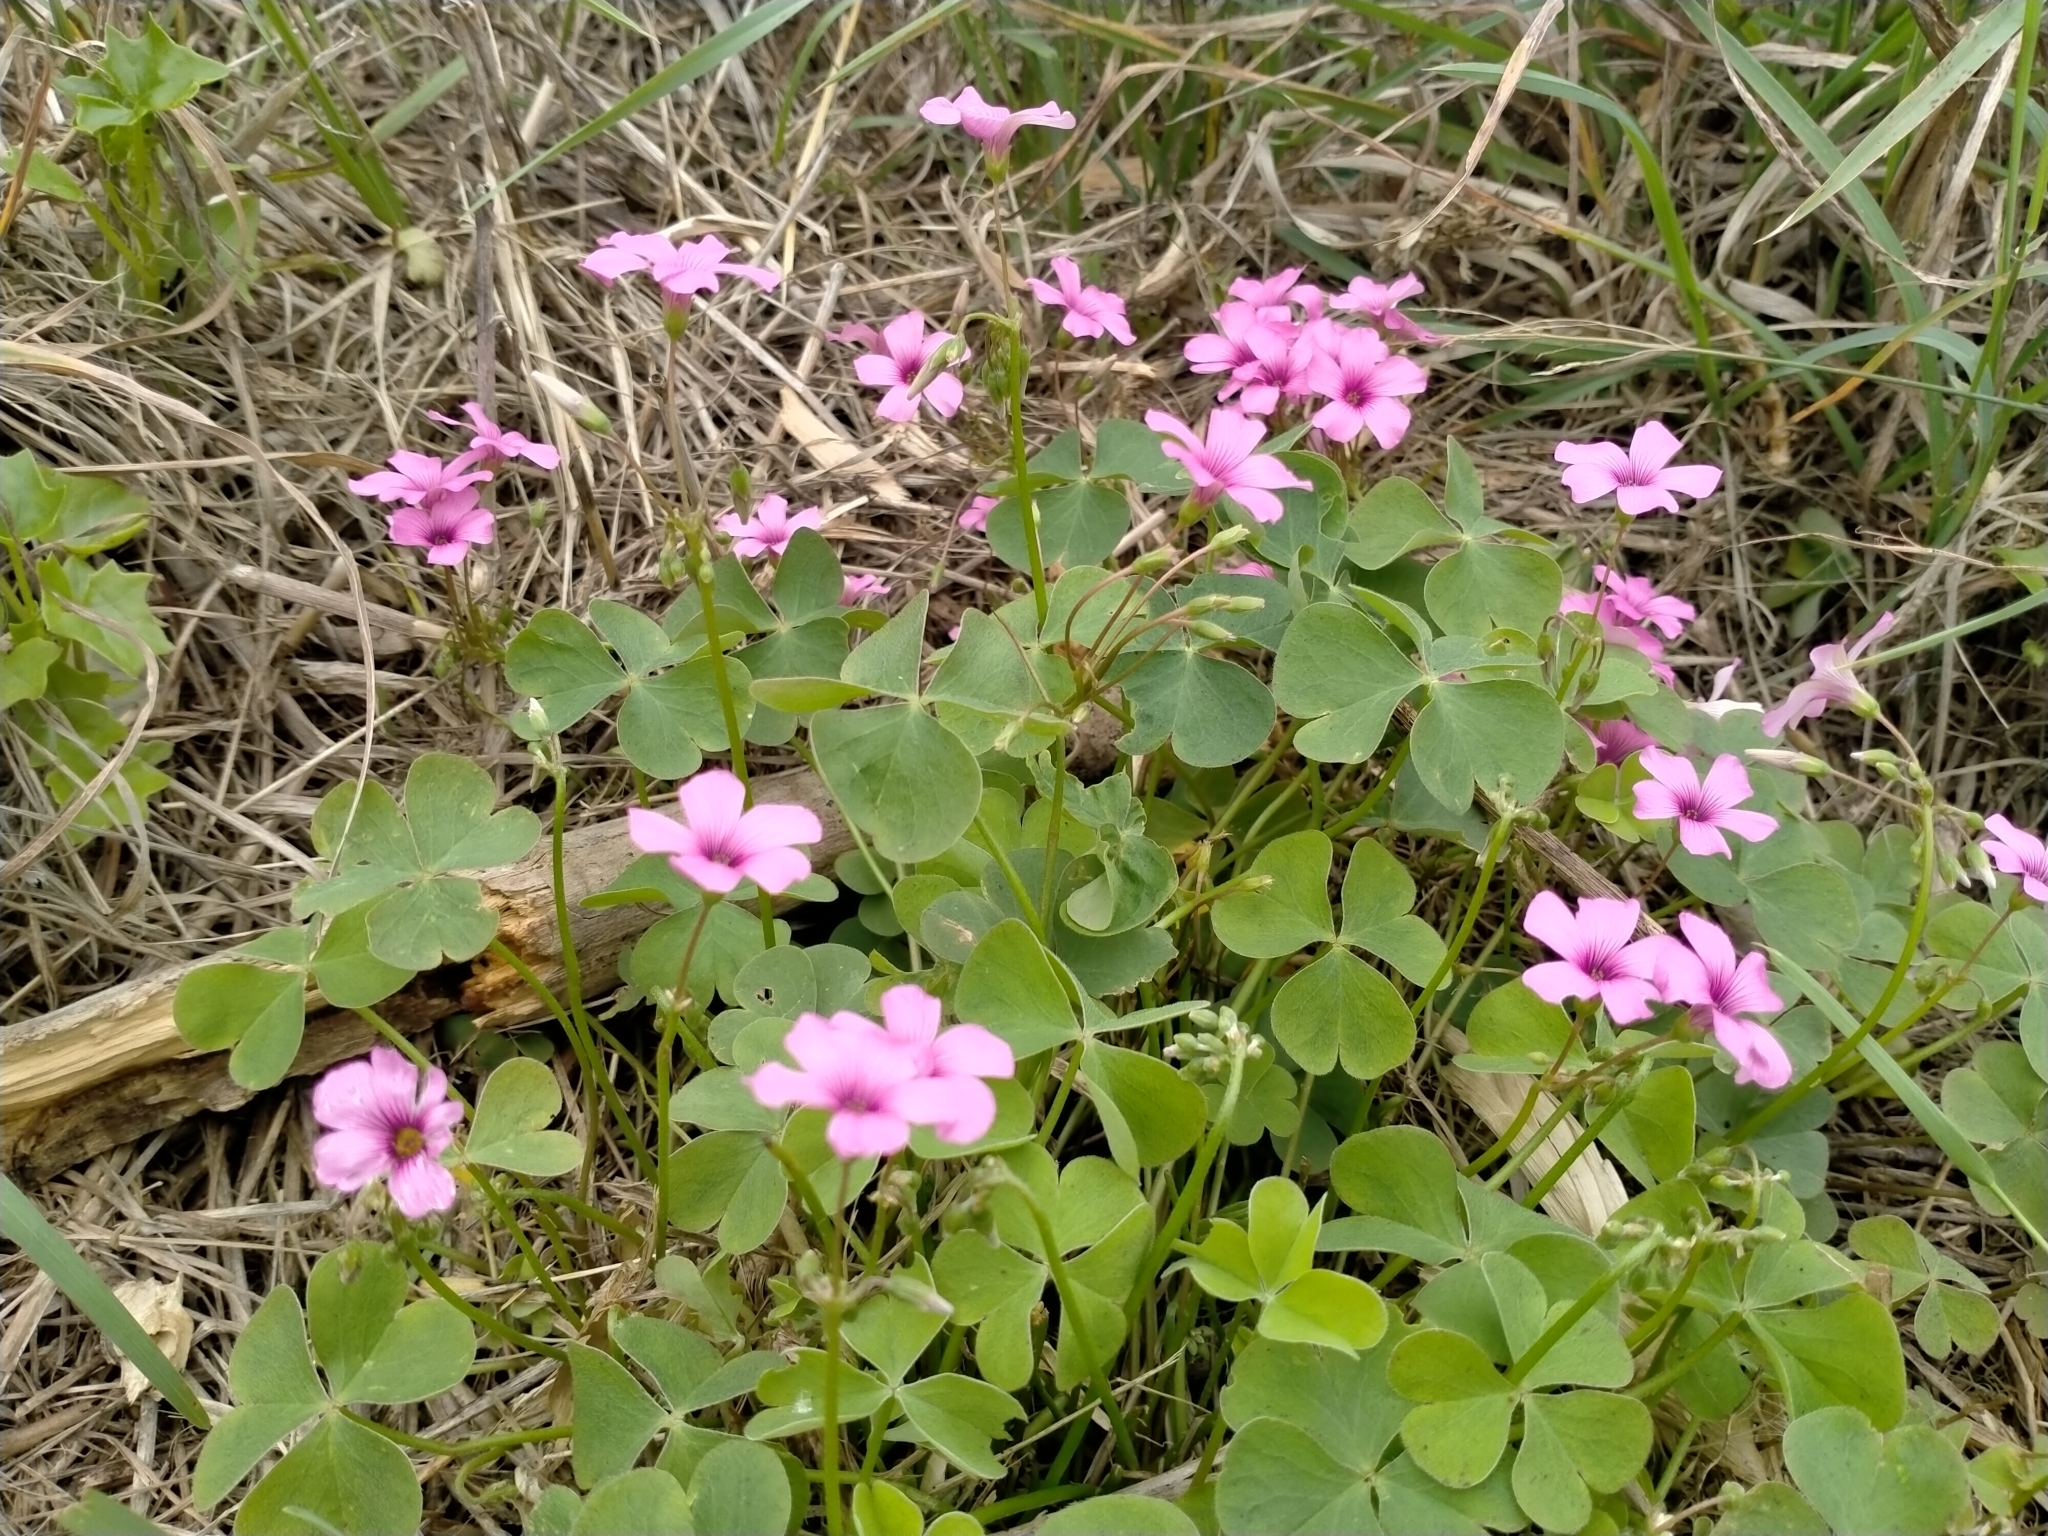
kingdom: Plantae
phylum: Tracheophyta
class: Magnoliopsida
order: Oxalidales
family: Oxalidaceae
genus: Oxalis
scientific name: Oxalis articulata
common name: Pink-sorrel
